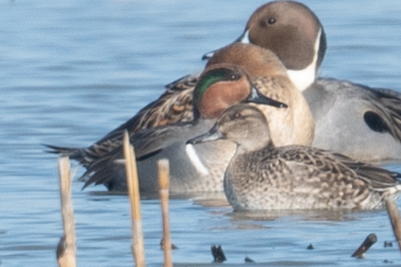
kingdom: Animalia
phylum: Chordata
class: Aves
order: Anseriformes
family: Anatidae
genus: Anas
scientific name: Anas crecca
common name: Eurasian teal
